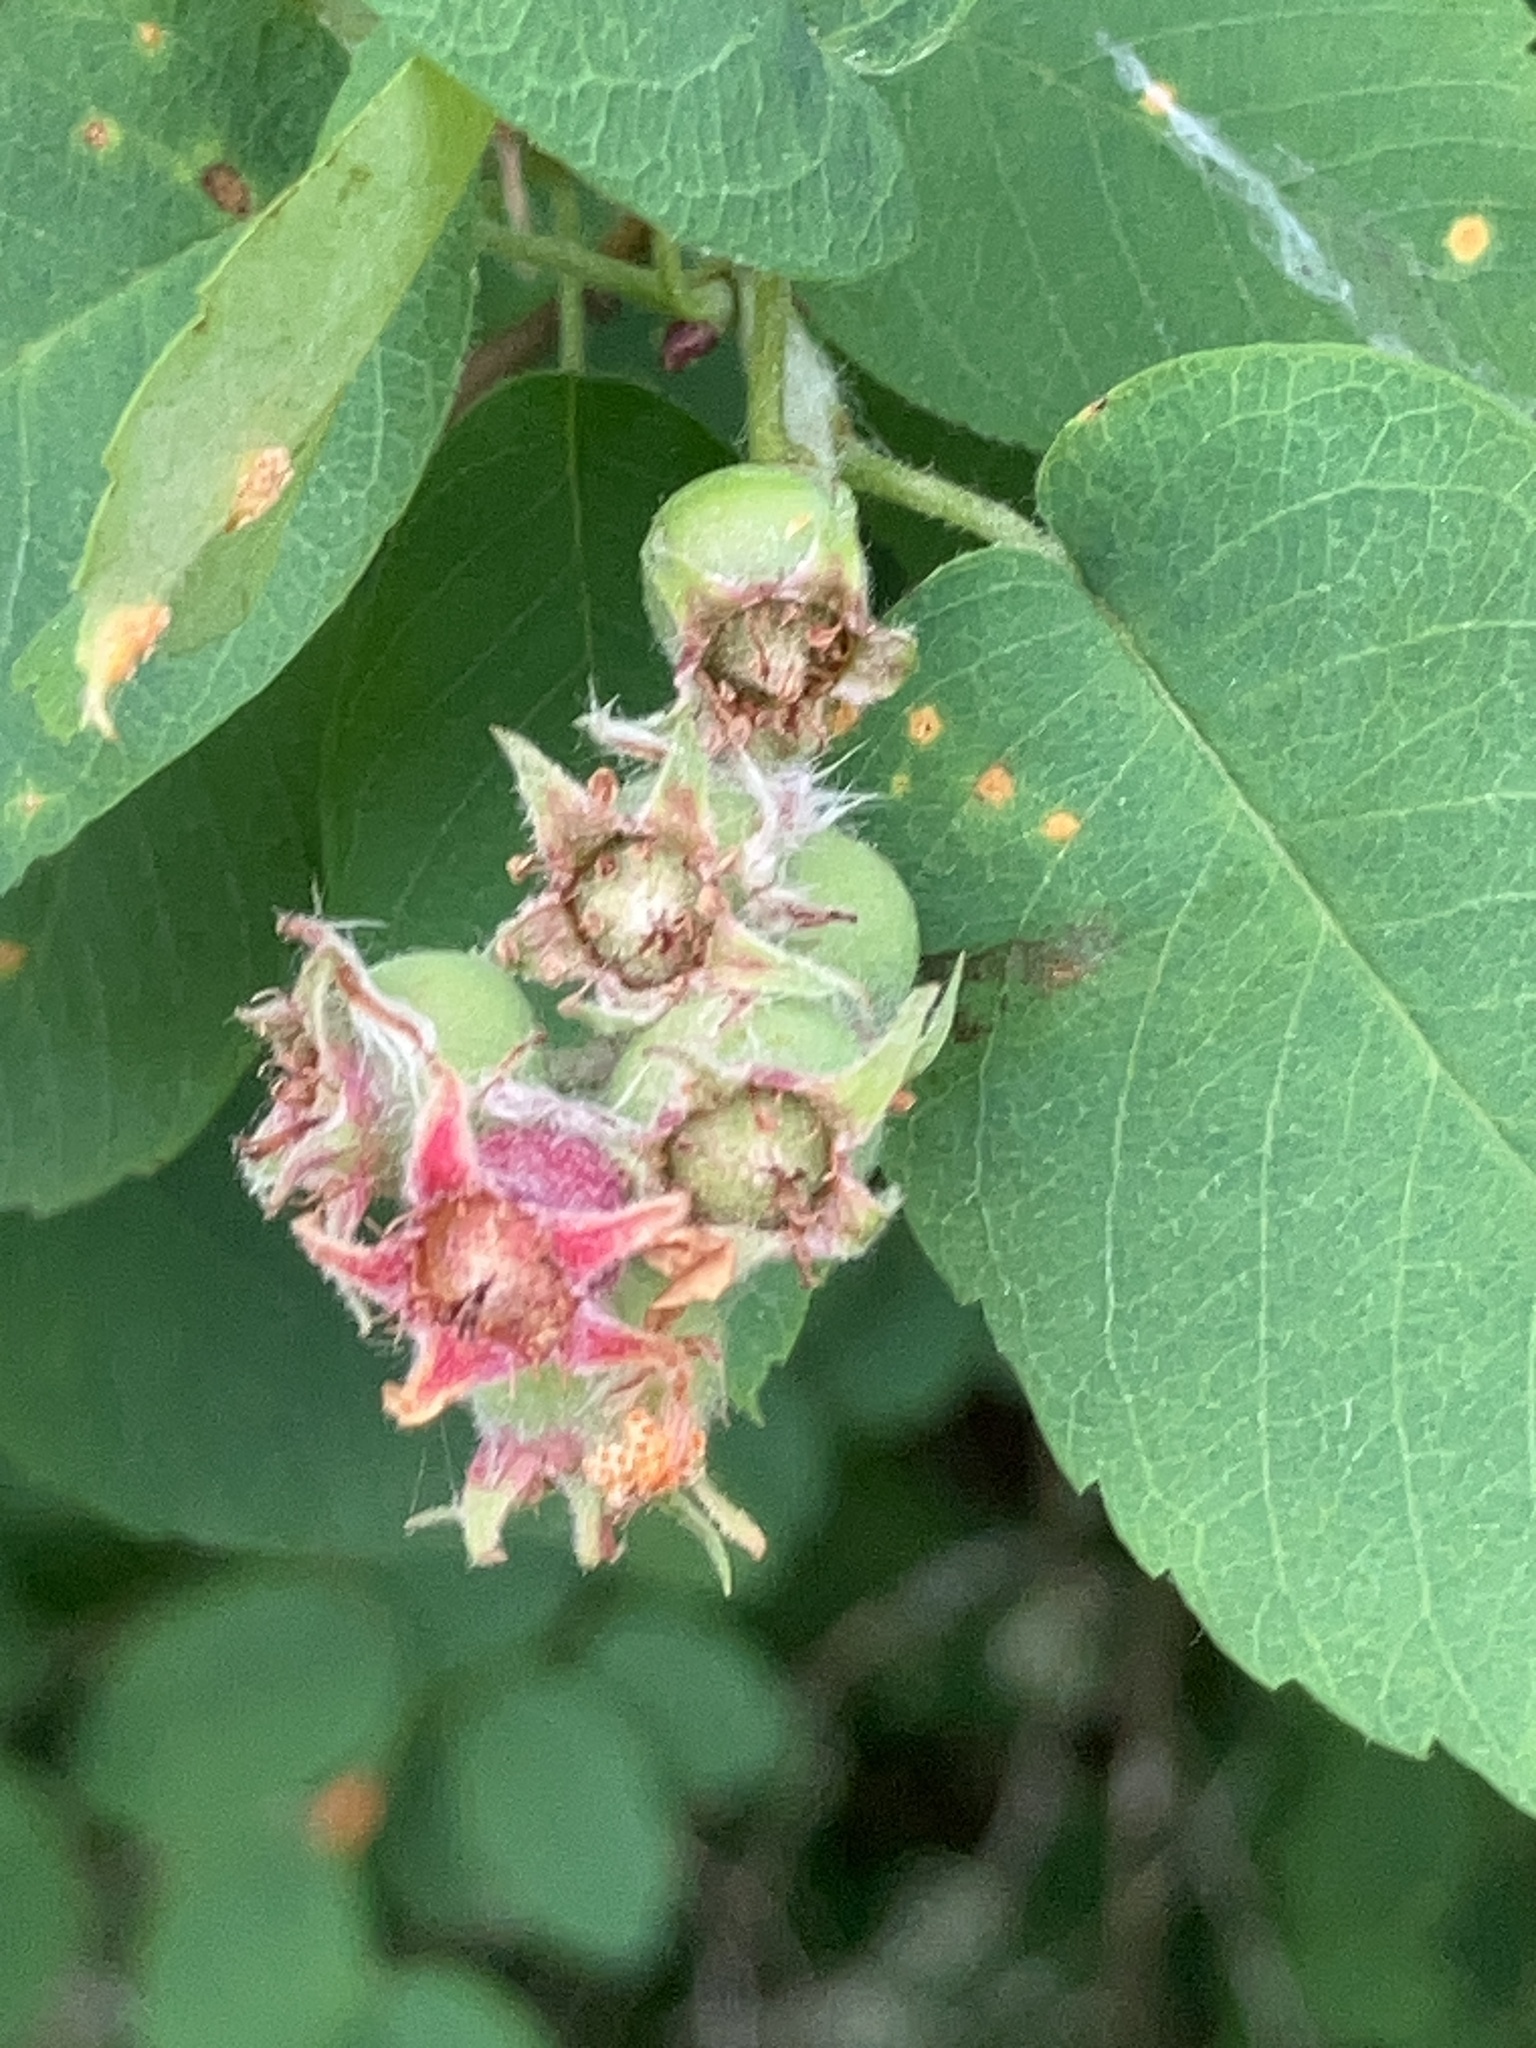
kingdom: Plantae
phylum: Tracheophyta
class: Magnoliopsida
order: Rosales
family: Rosaceae
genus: Amelanchier
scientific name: Amelanchier alnifolia
